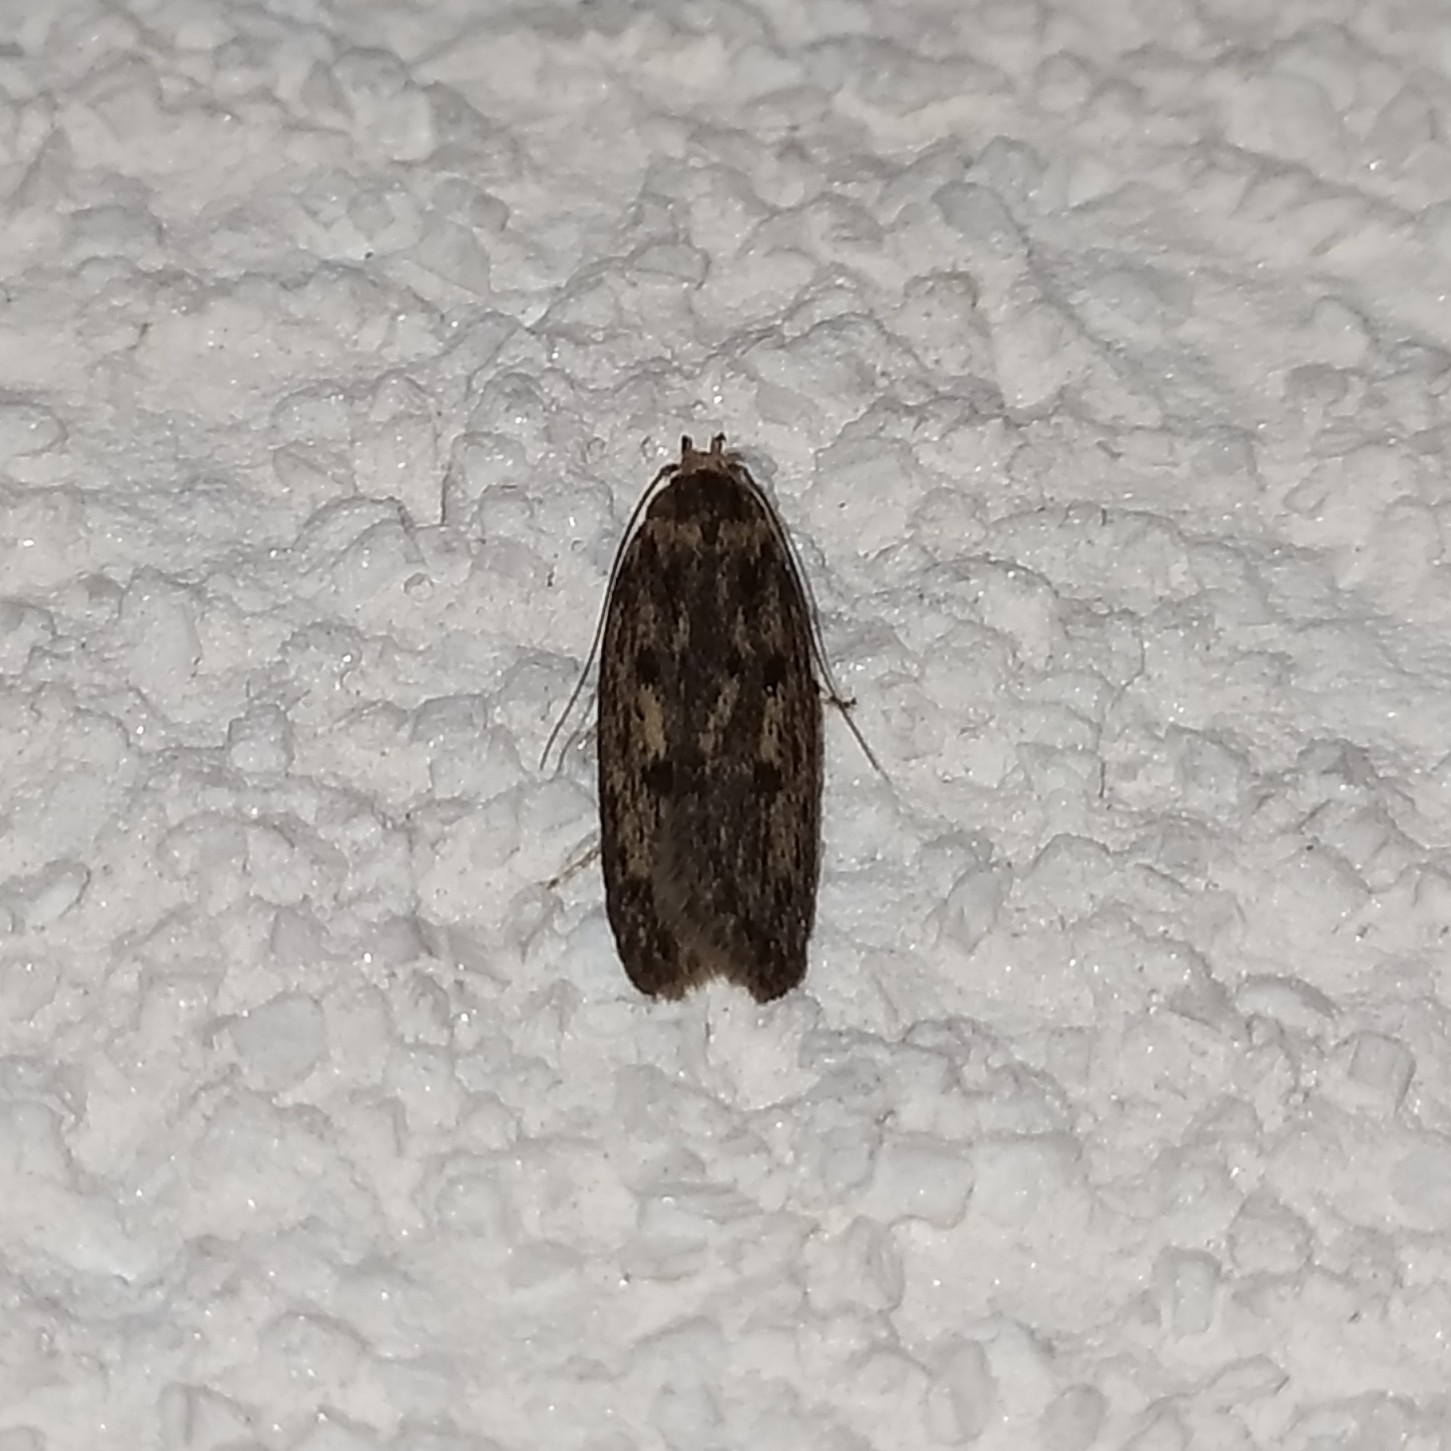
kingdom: Animalia
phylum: Arthropoda
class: Insecta
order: Lepidoptera
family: Oecophoridae
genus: Hofmannophila
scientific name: Hofmannophila pseudospretella
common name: Brown house moth
